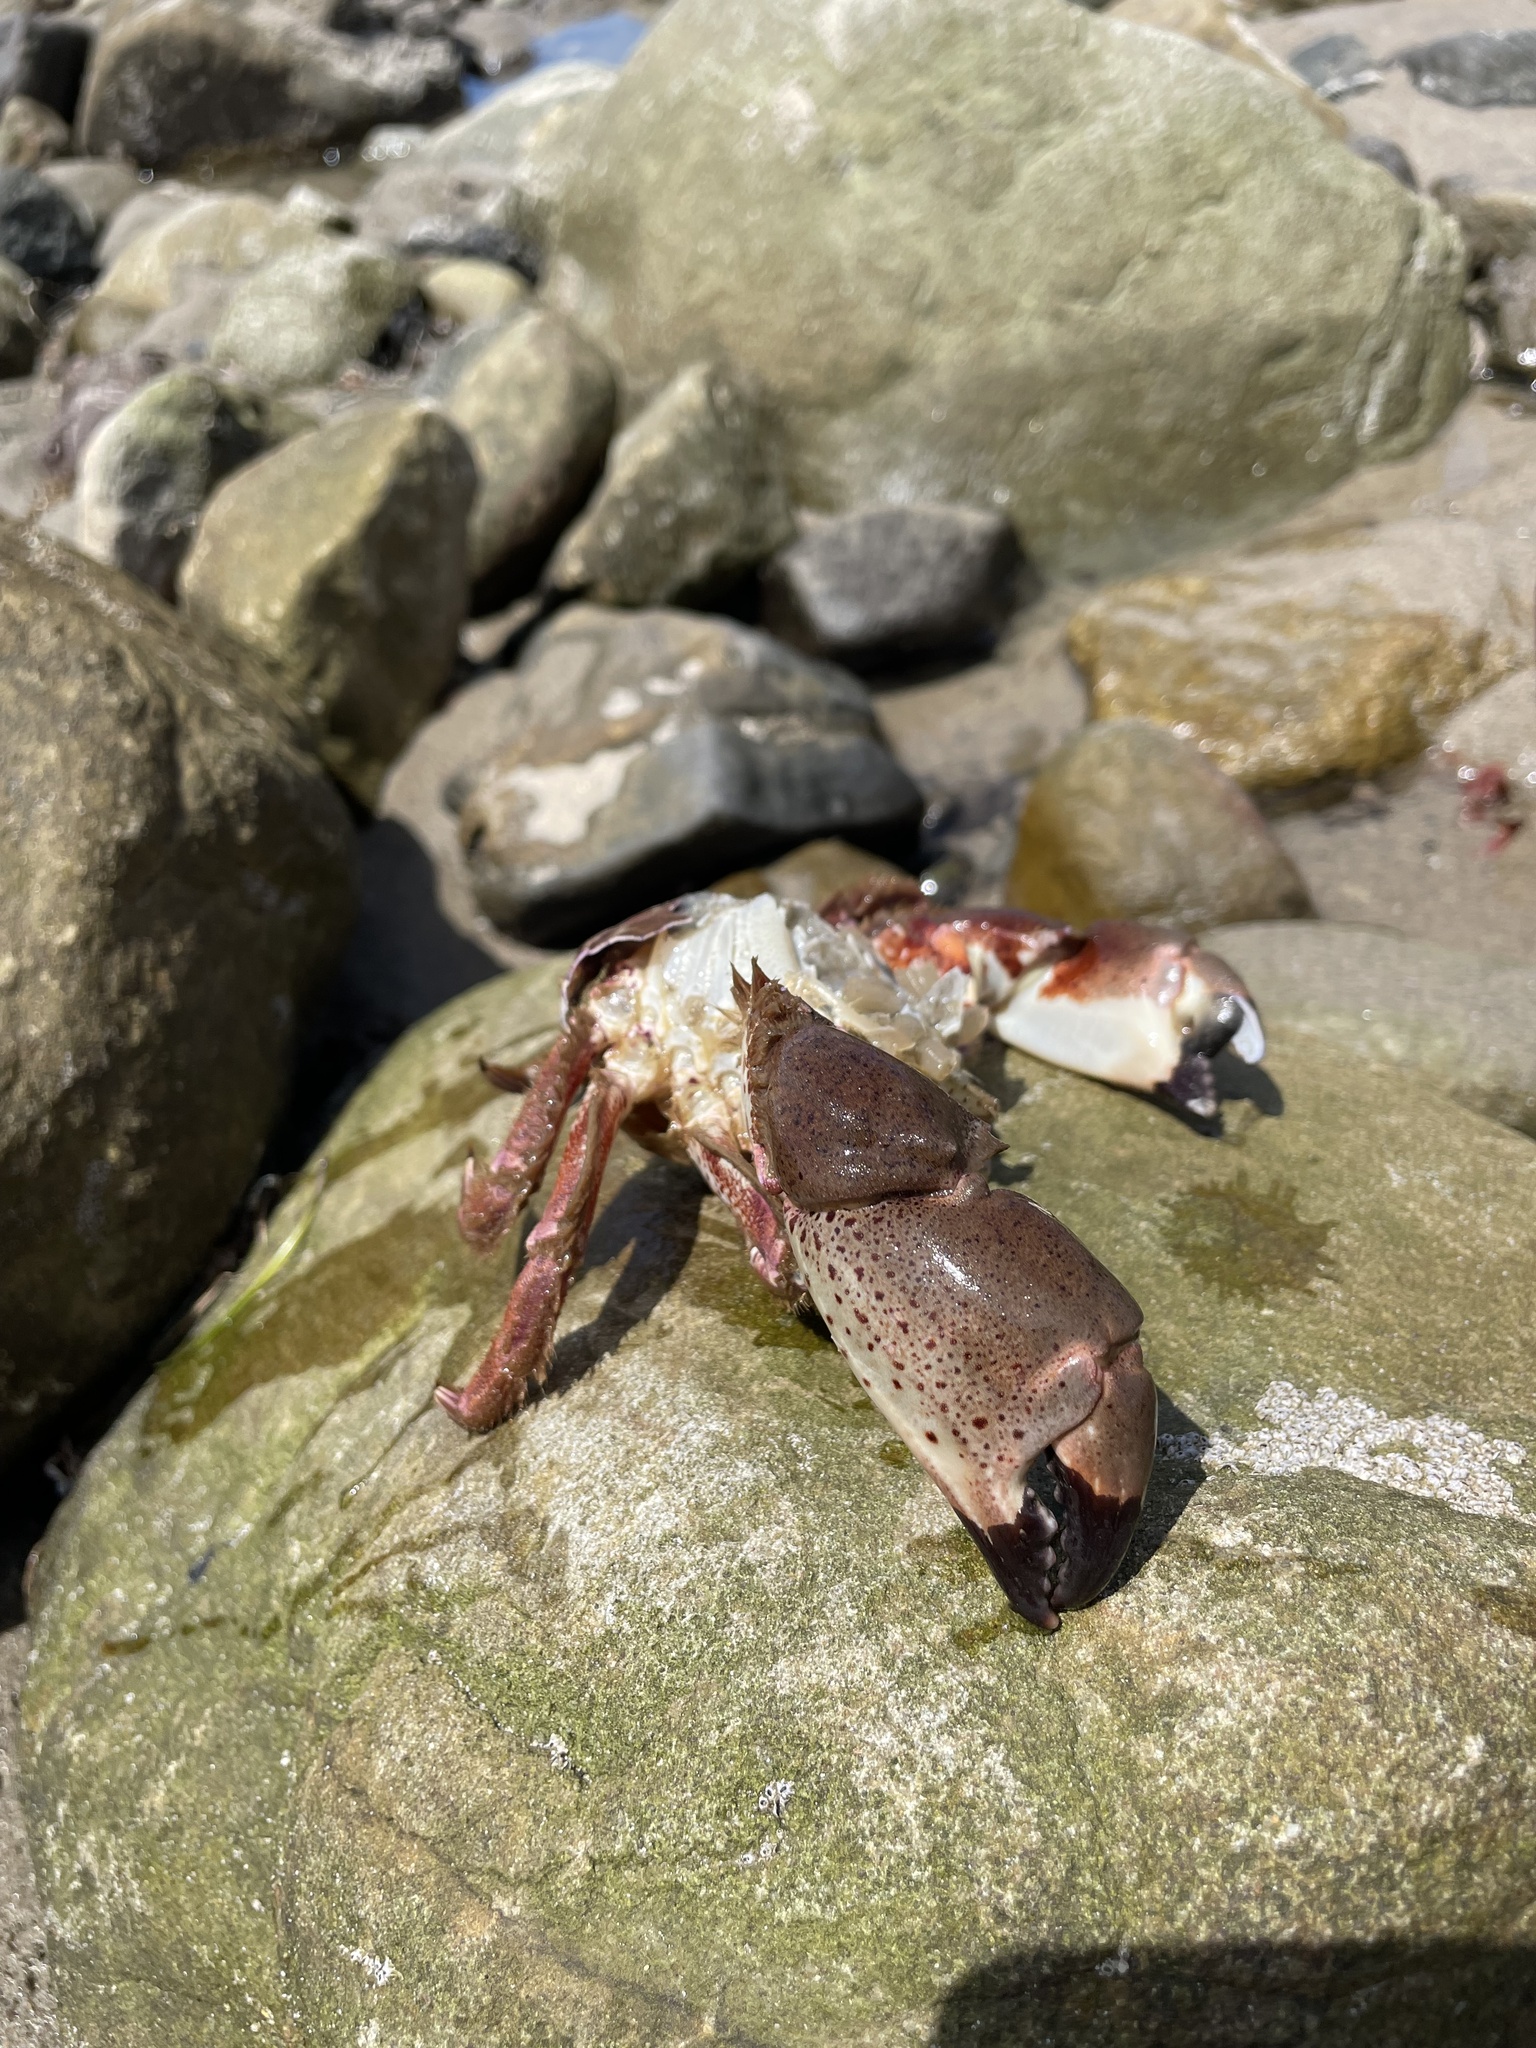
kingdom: Animalia
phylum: Arthropoda
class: Malacostraca
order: Decapoda
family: Cancridae
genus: Romaleon
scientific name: Romaleon antennarium
